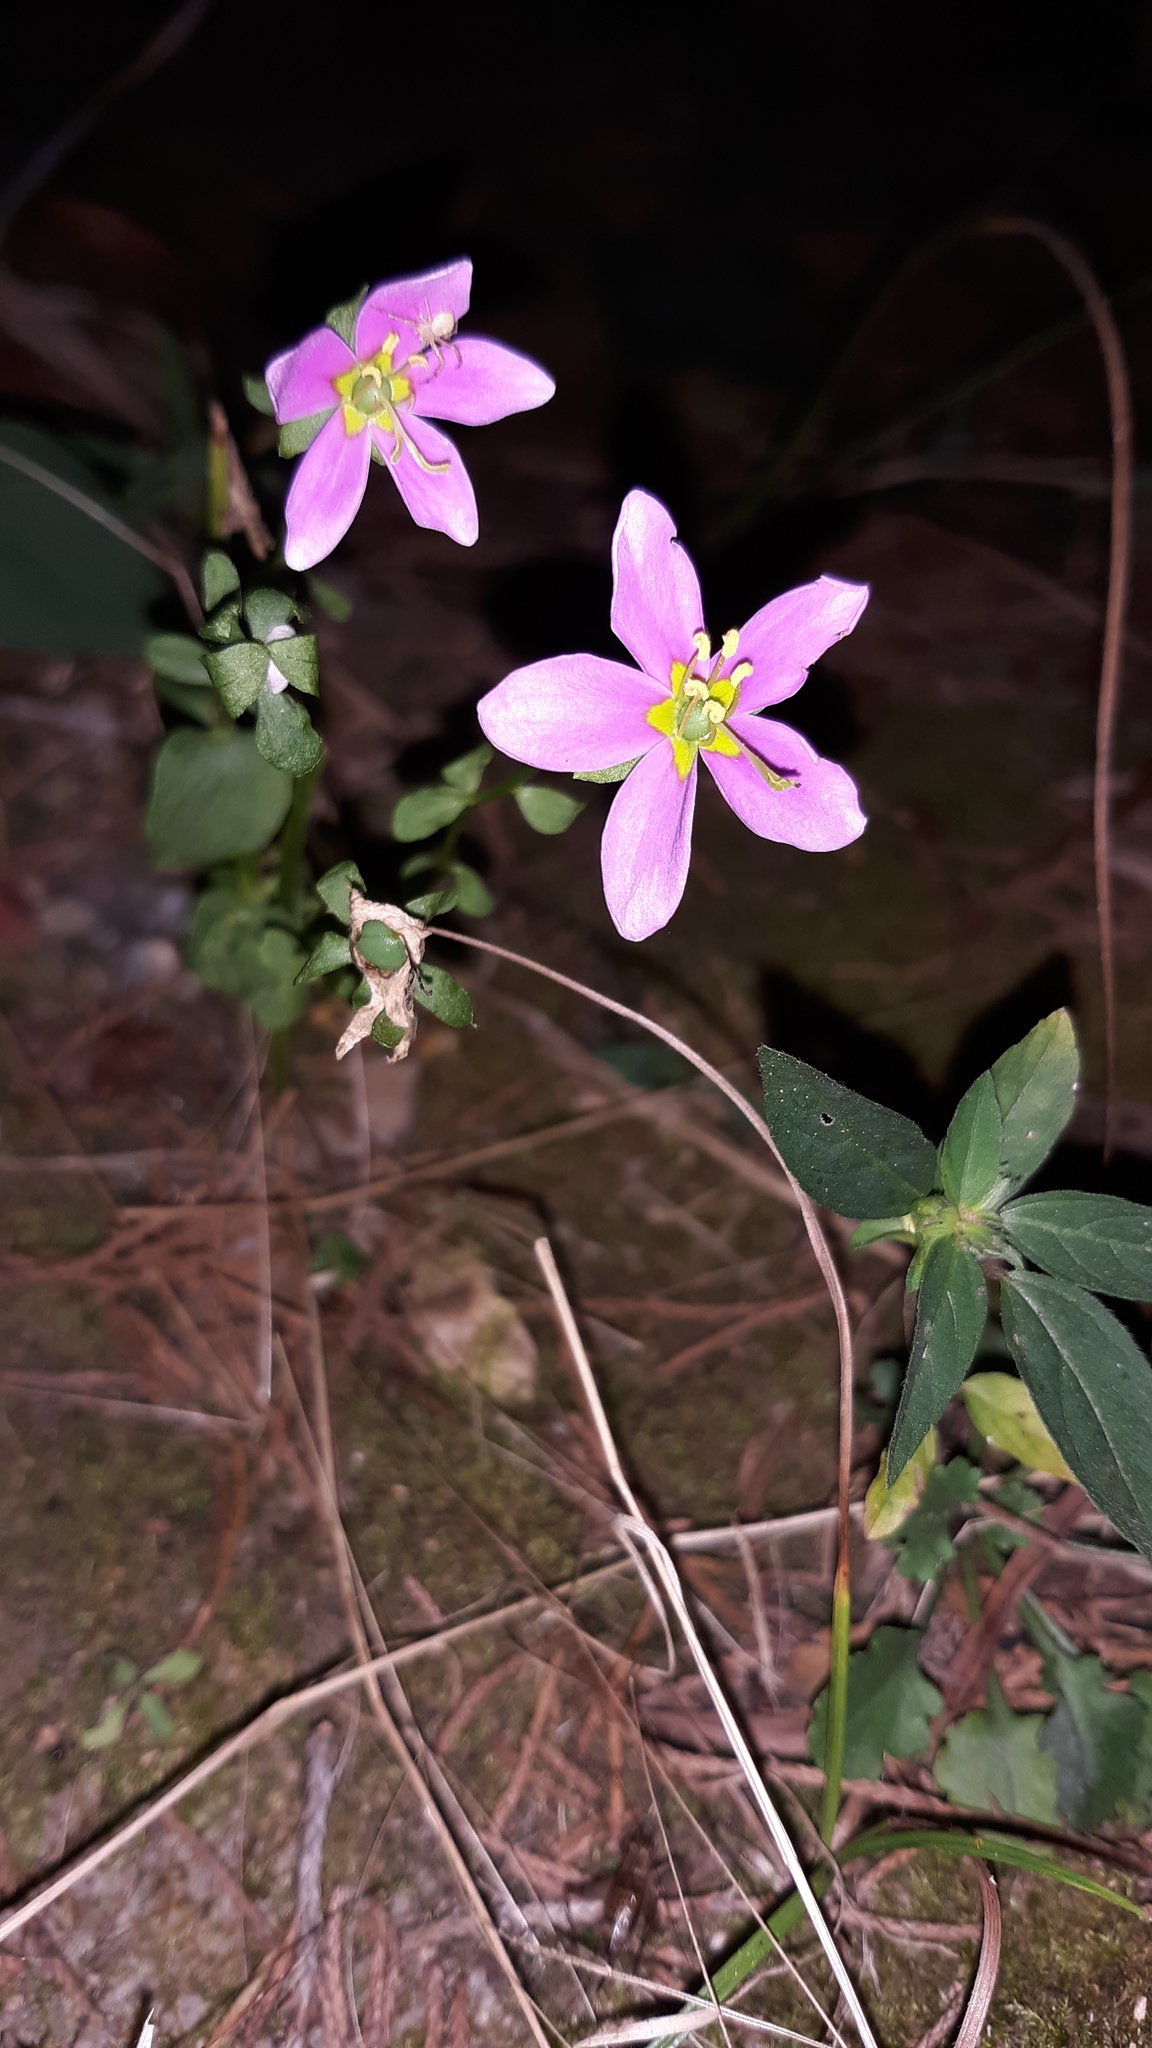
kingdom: Plantae
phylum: Tracheophyta
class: Magnoliopsida
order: Gentianales
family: Gentianaceae
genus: Sabatia
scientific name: Sabatia angularis
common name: Rose-pink
